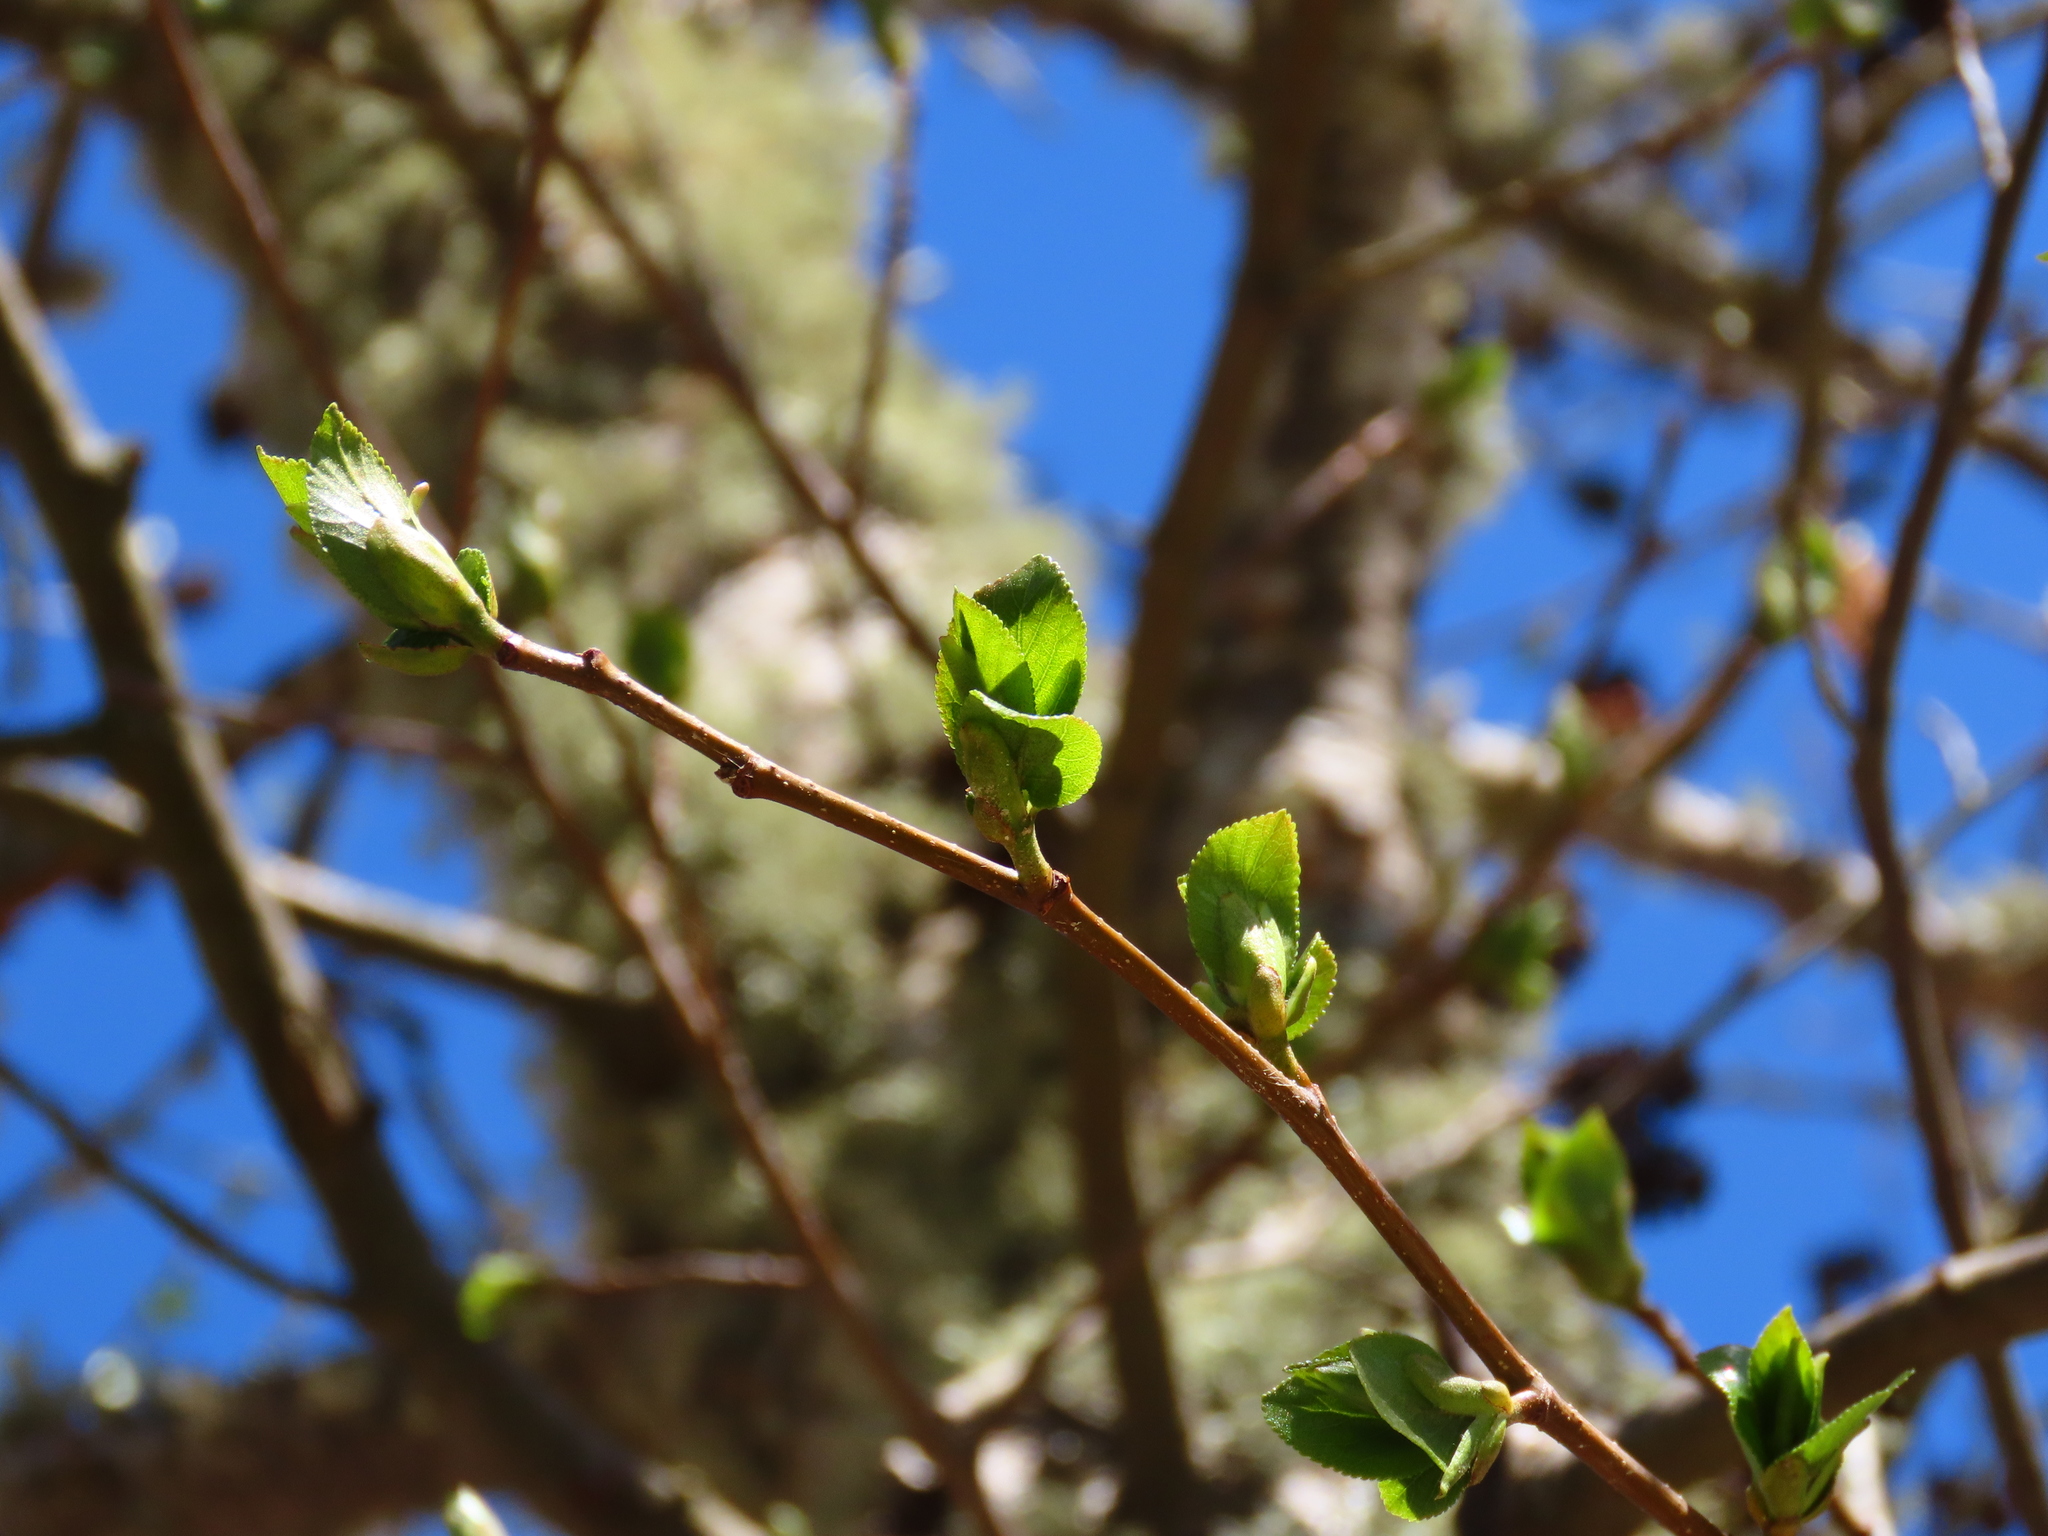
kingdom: Plantae
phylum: Tracheophyta
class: Magnoliopsida
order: Fagales
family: Betulaceae
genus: Alnus
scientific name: Alnus cordata
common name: Italian alder
